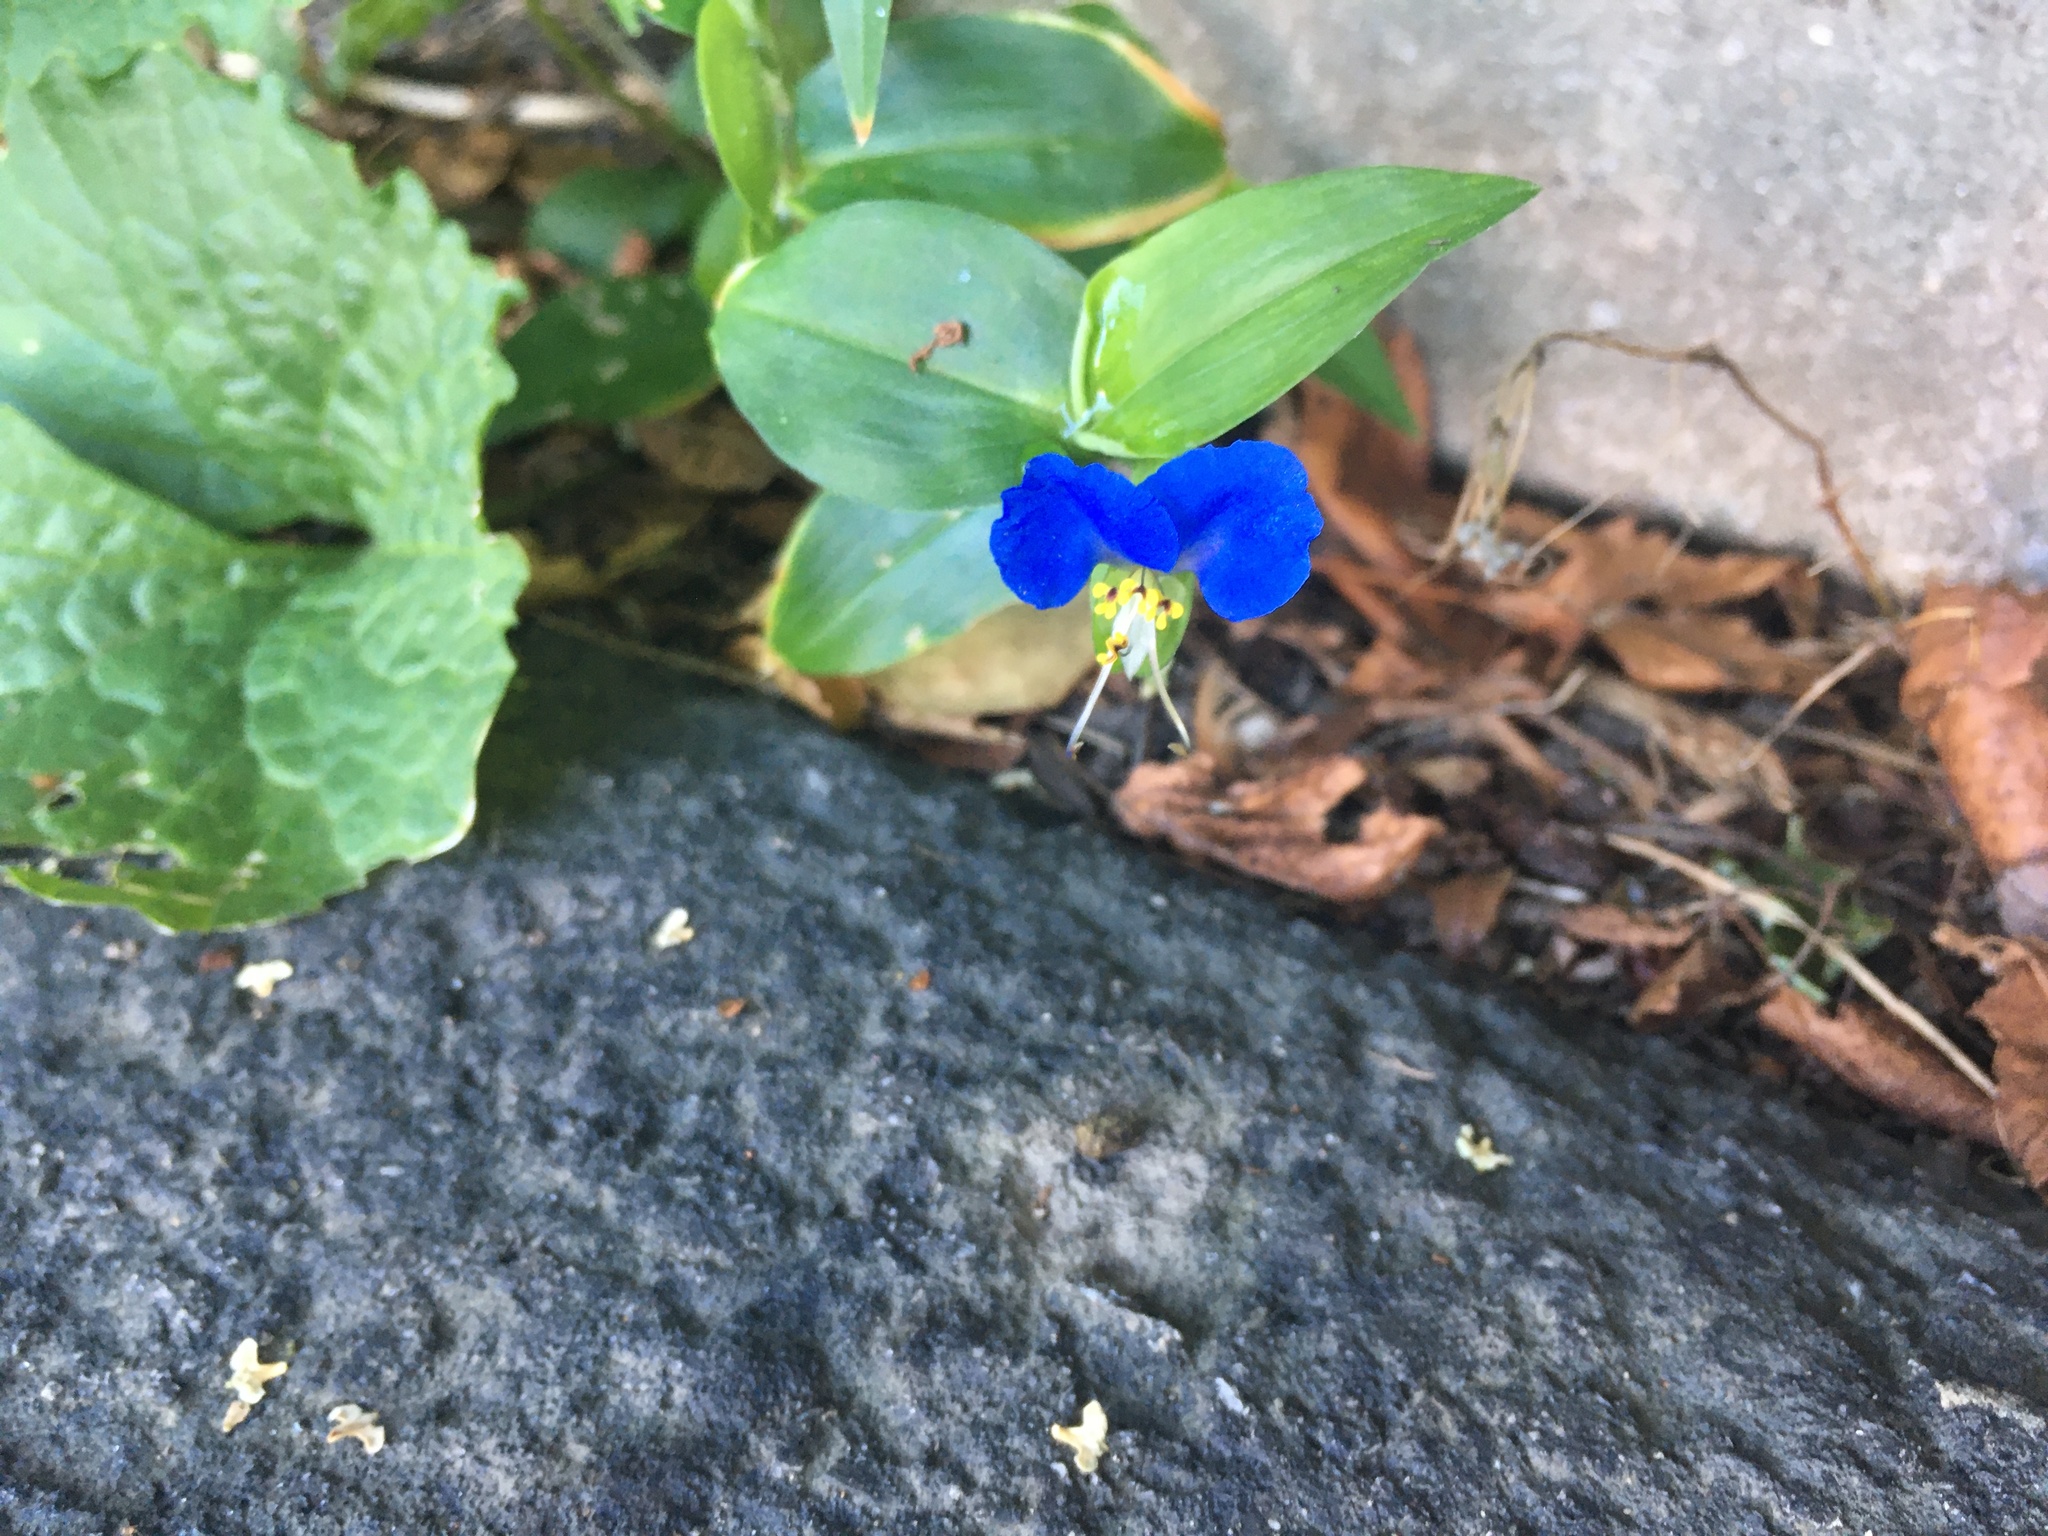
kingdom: Plantae
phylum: Tracheophyta
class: Liliopsida
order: Commelinales
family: Commelinaceae
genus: Commelina
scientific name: Commelina communis
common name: Asiatic dayflower
